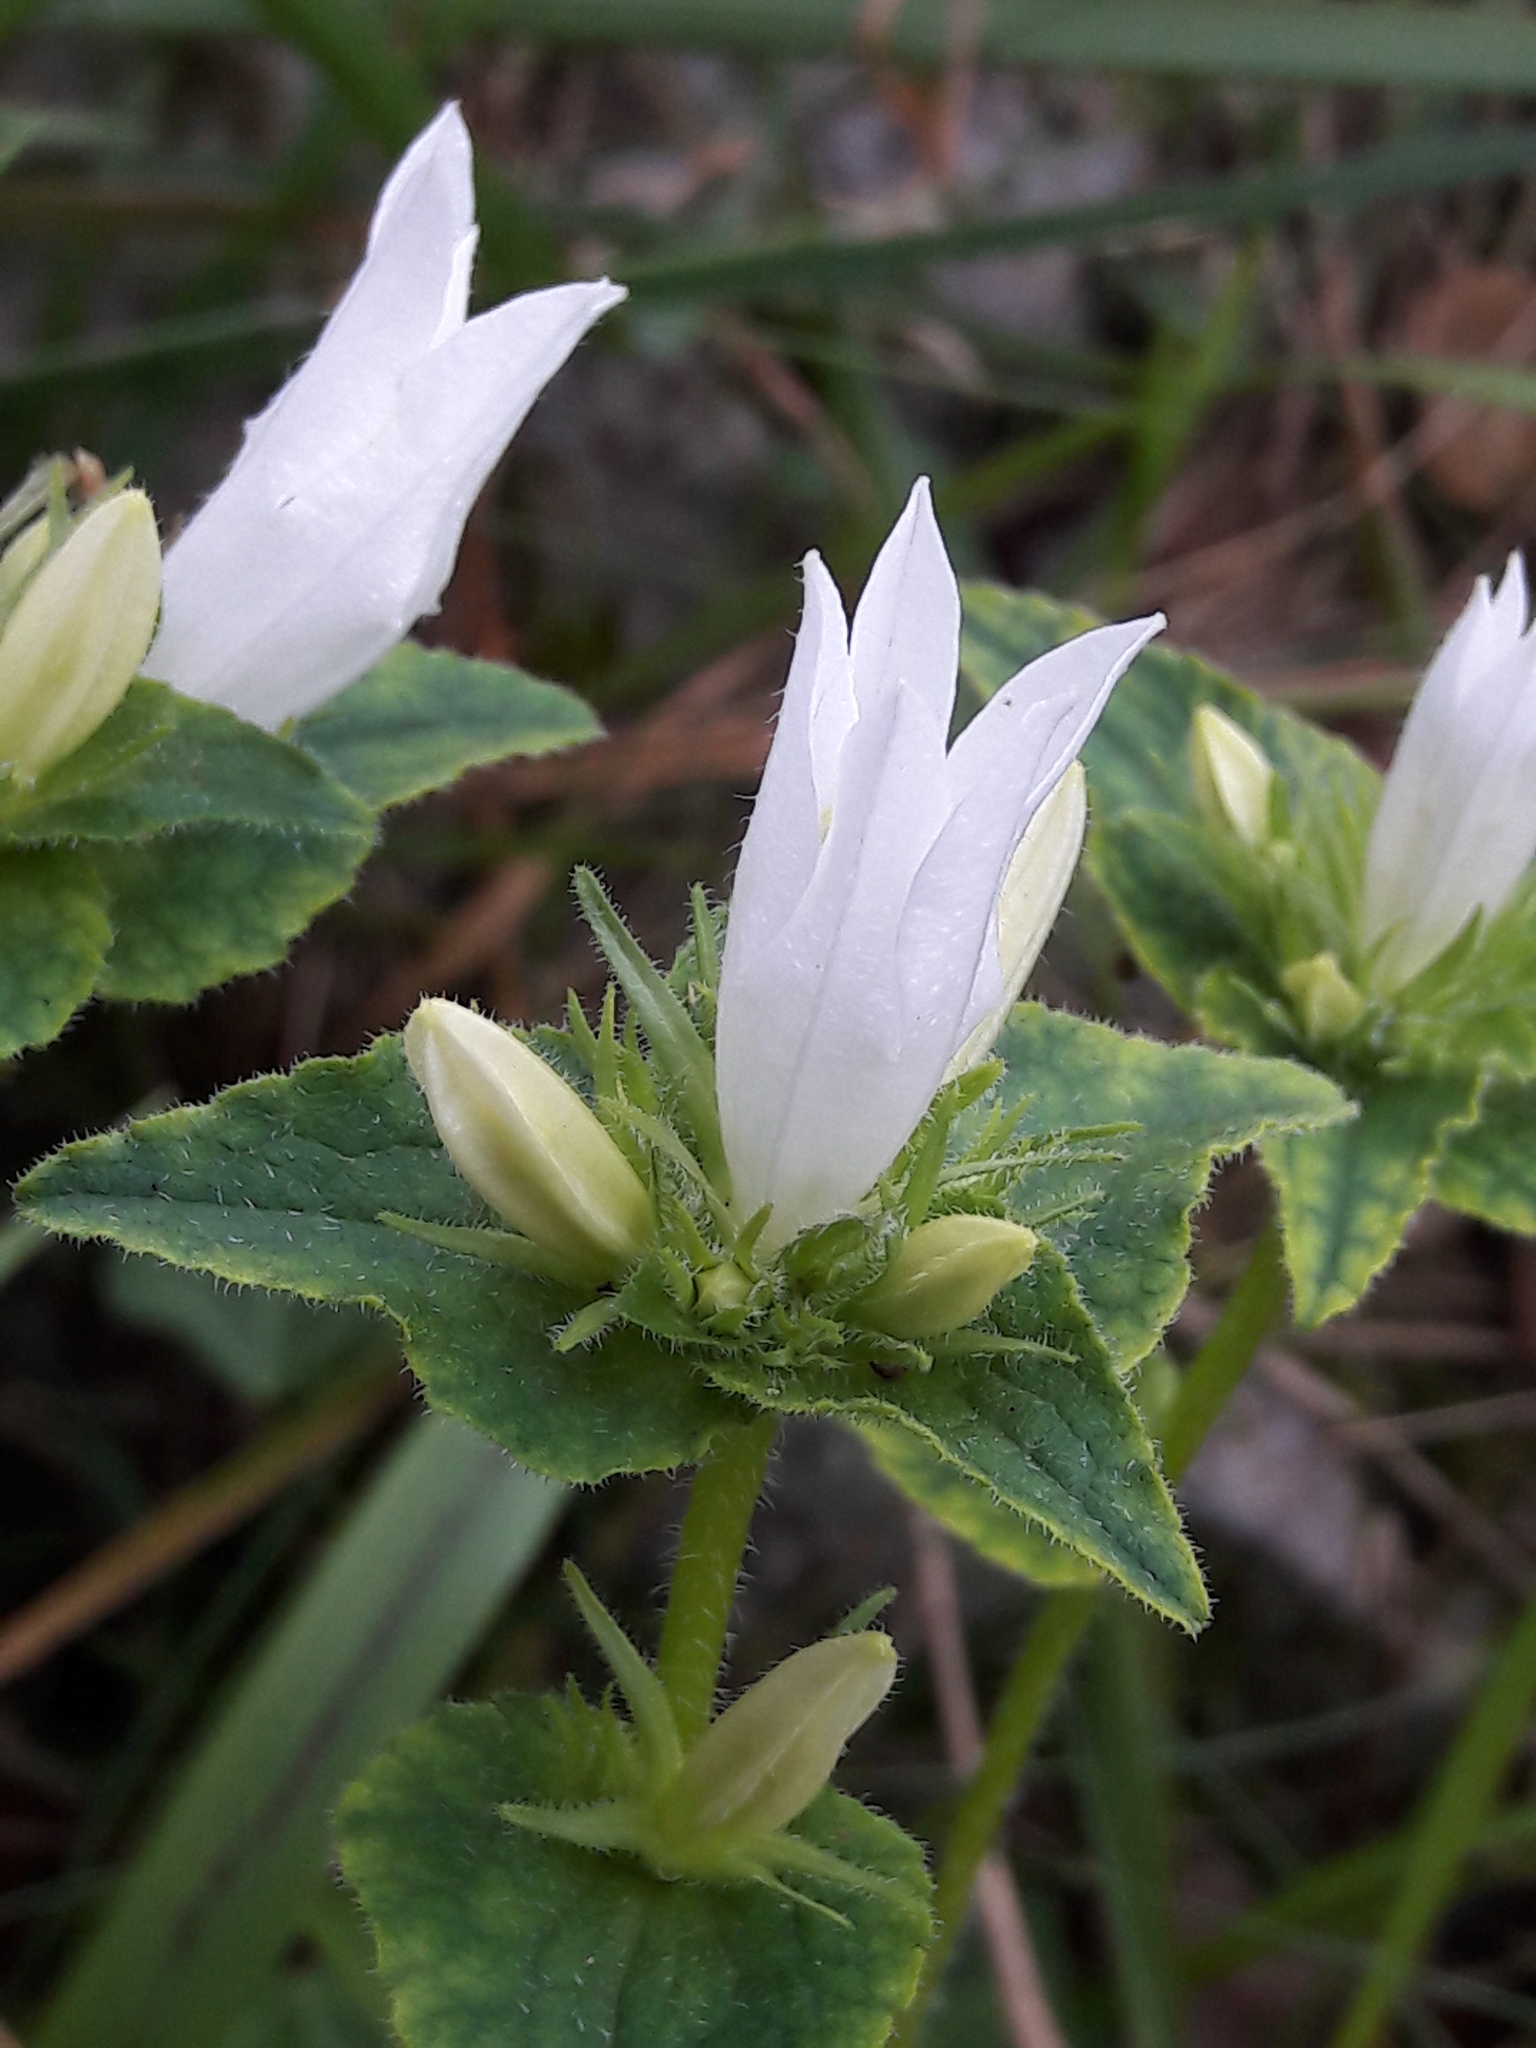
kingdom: Plantae
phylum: Tracheophyta
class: Magnoliopsida
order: Asterales
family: Campanulaceae
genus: Campanula
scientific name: Campanula glomerata
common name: Clustered bellflower
